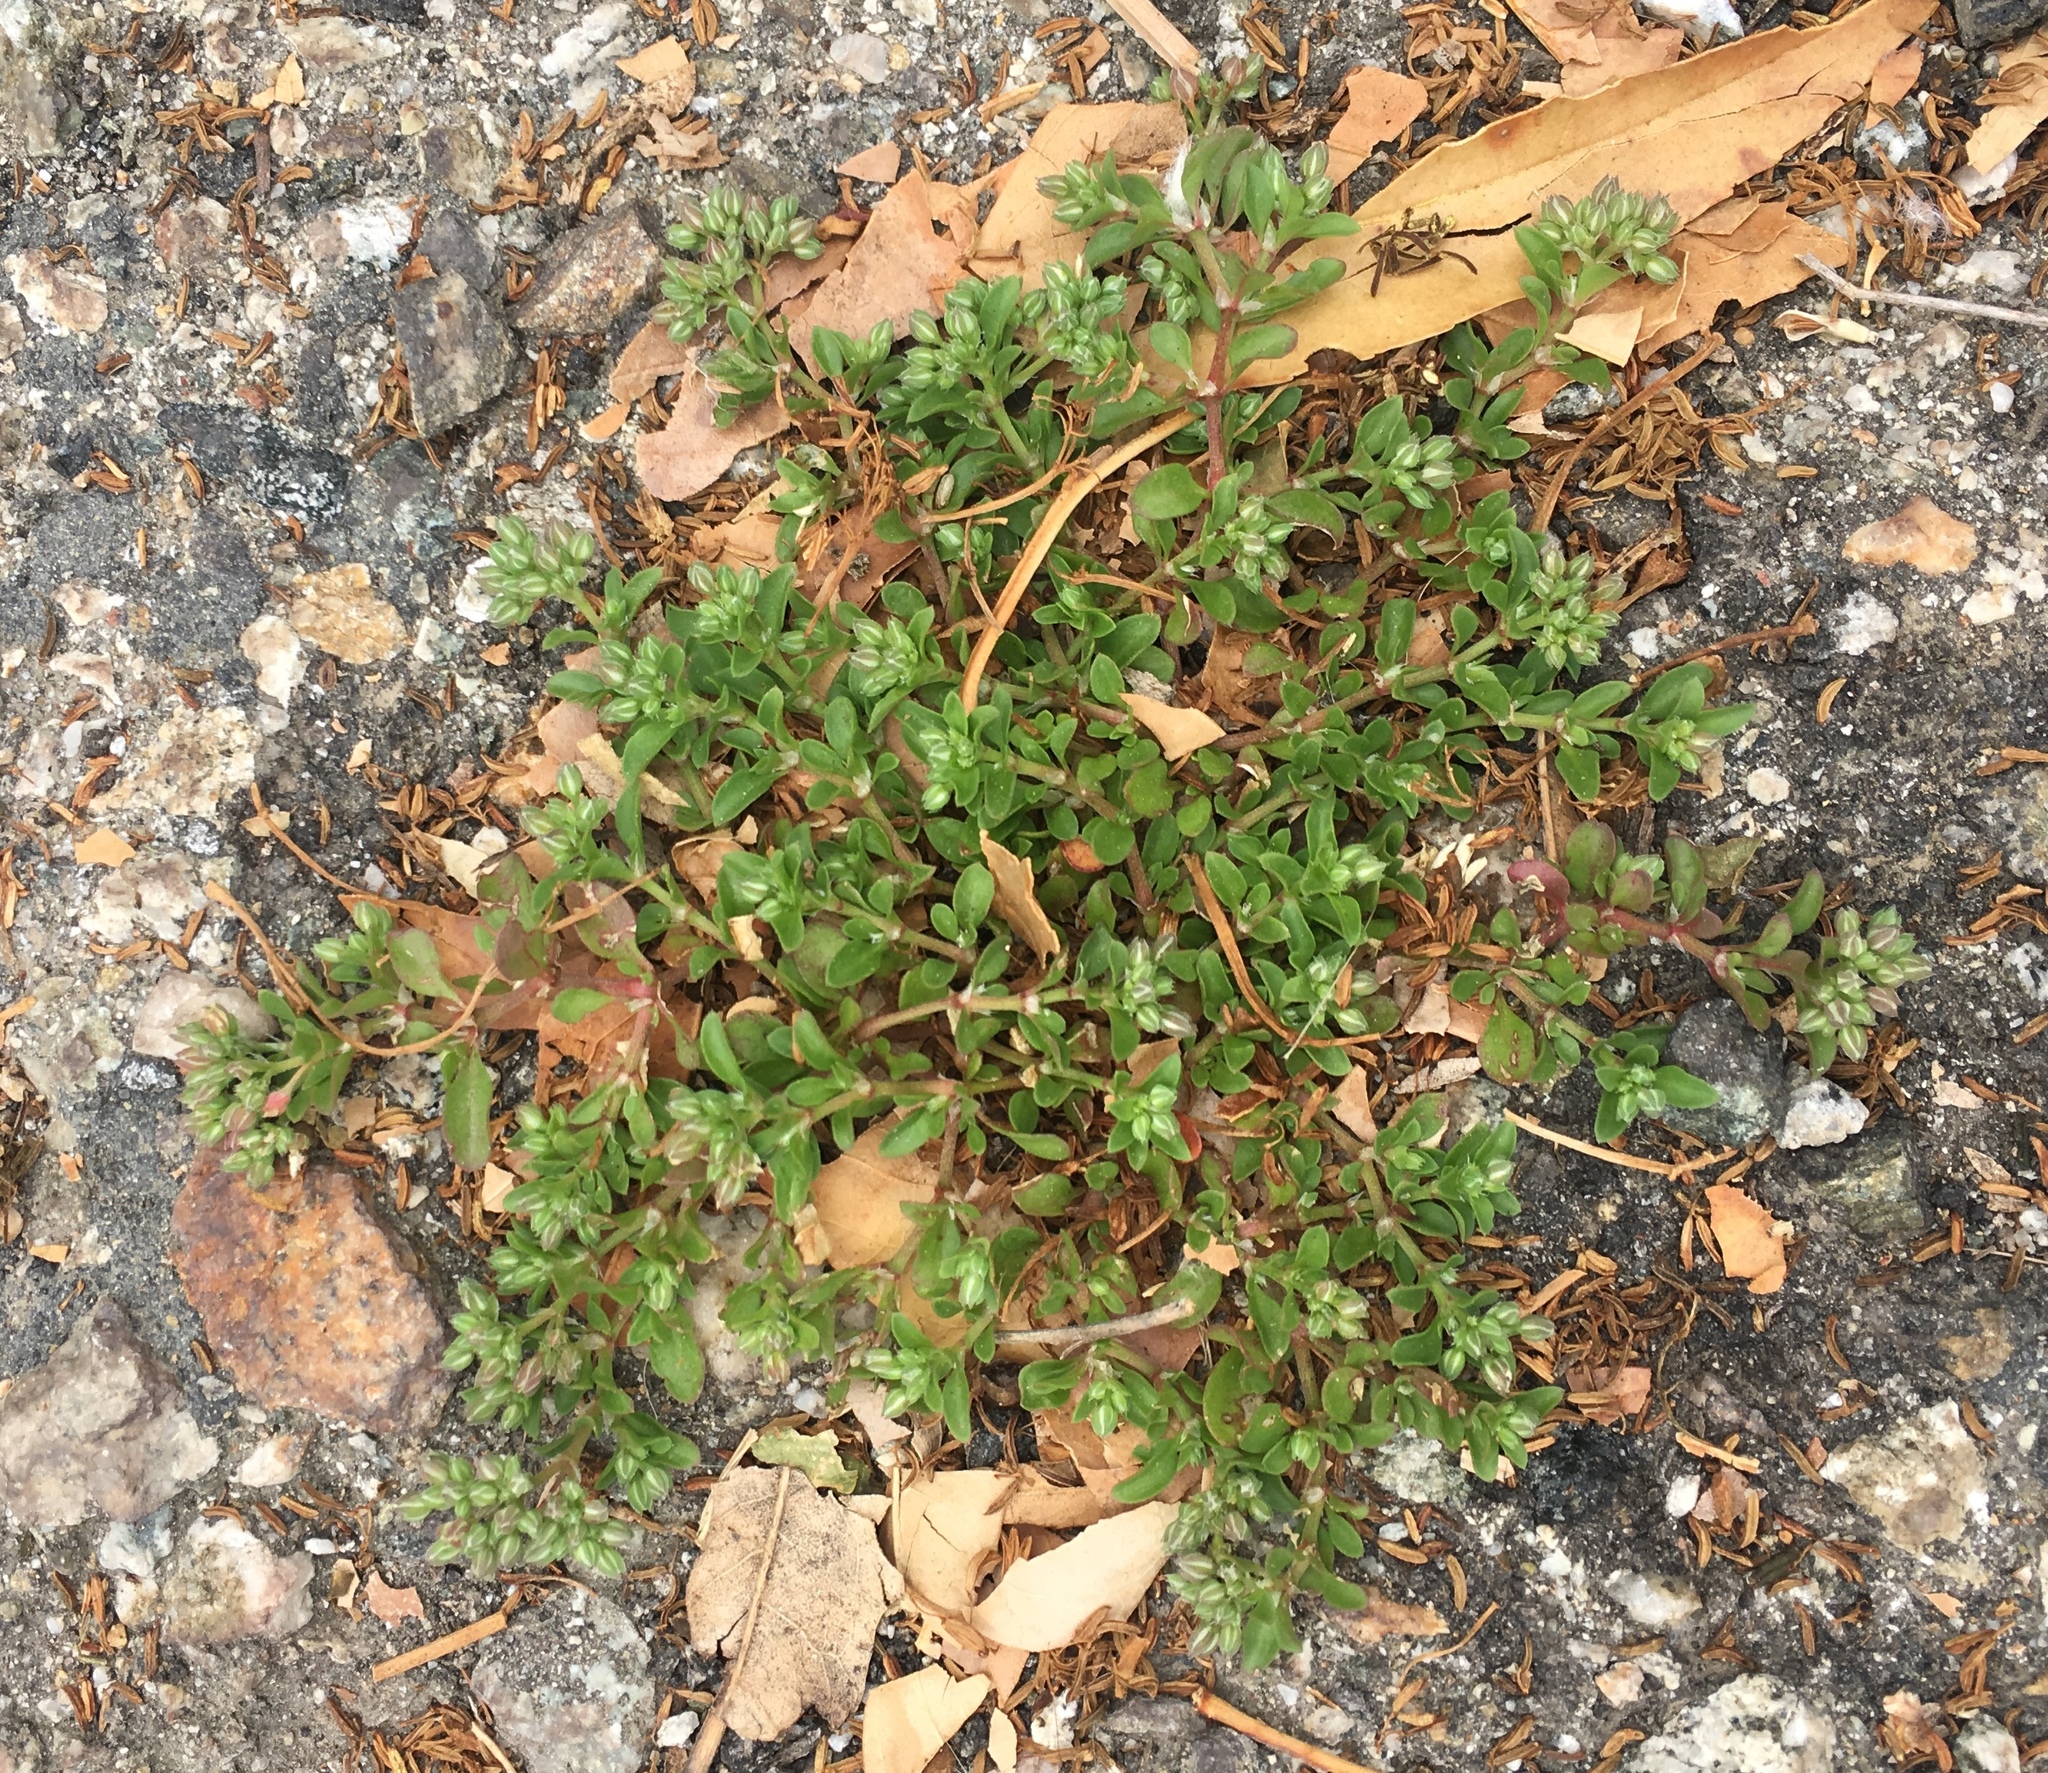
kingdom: Plantae
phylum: Tracheophyta
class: Magnoliopsida
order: Caryophyllales
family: Caryophyllaceae
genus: Polycarpon
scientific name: Polycarpon tetraphyllum
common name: Four-leaved all-seed
